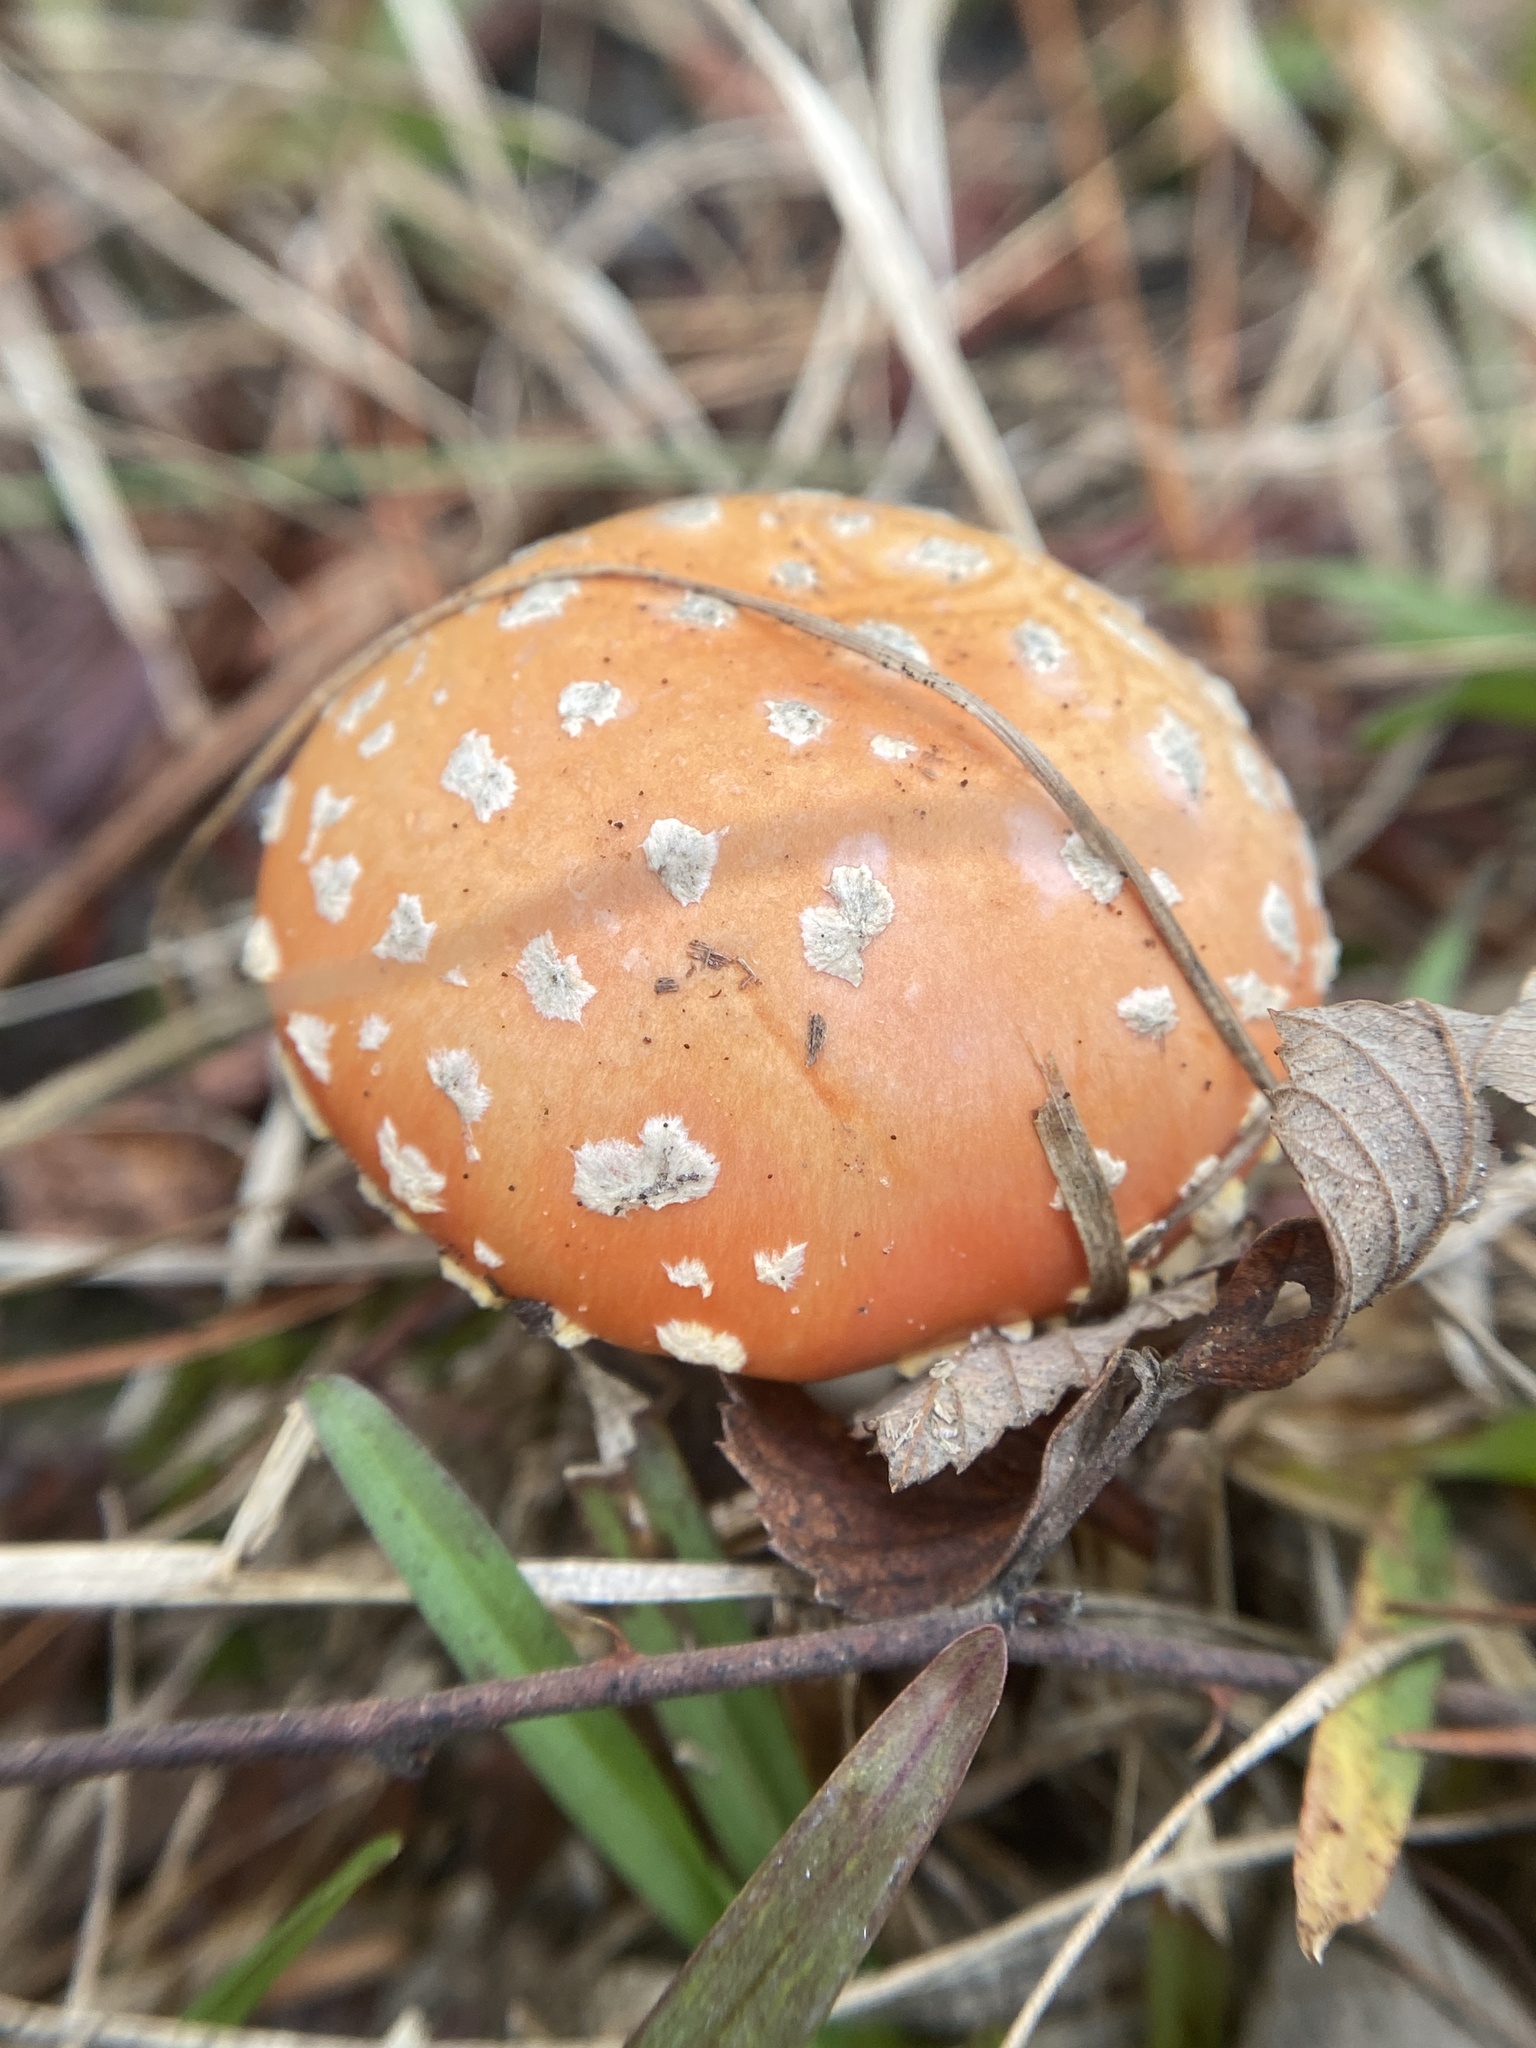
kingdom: Fungi
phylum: Basidiomycota
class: Agaricomycetes
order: Agaricales
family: Amanitaceae
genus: Amanita
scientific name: Amanita persicina
